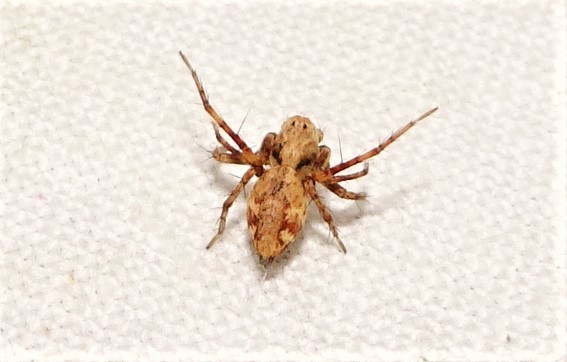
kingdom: Animalia
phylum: Arthropoda
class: Arachnida
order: Araneae
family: Oxyopidae
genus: Oxyopes
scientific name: Oxyopes variabilis
